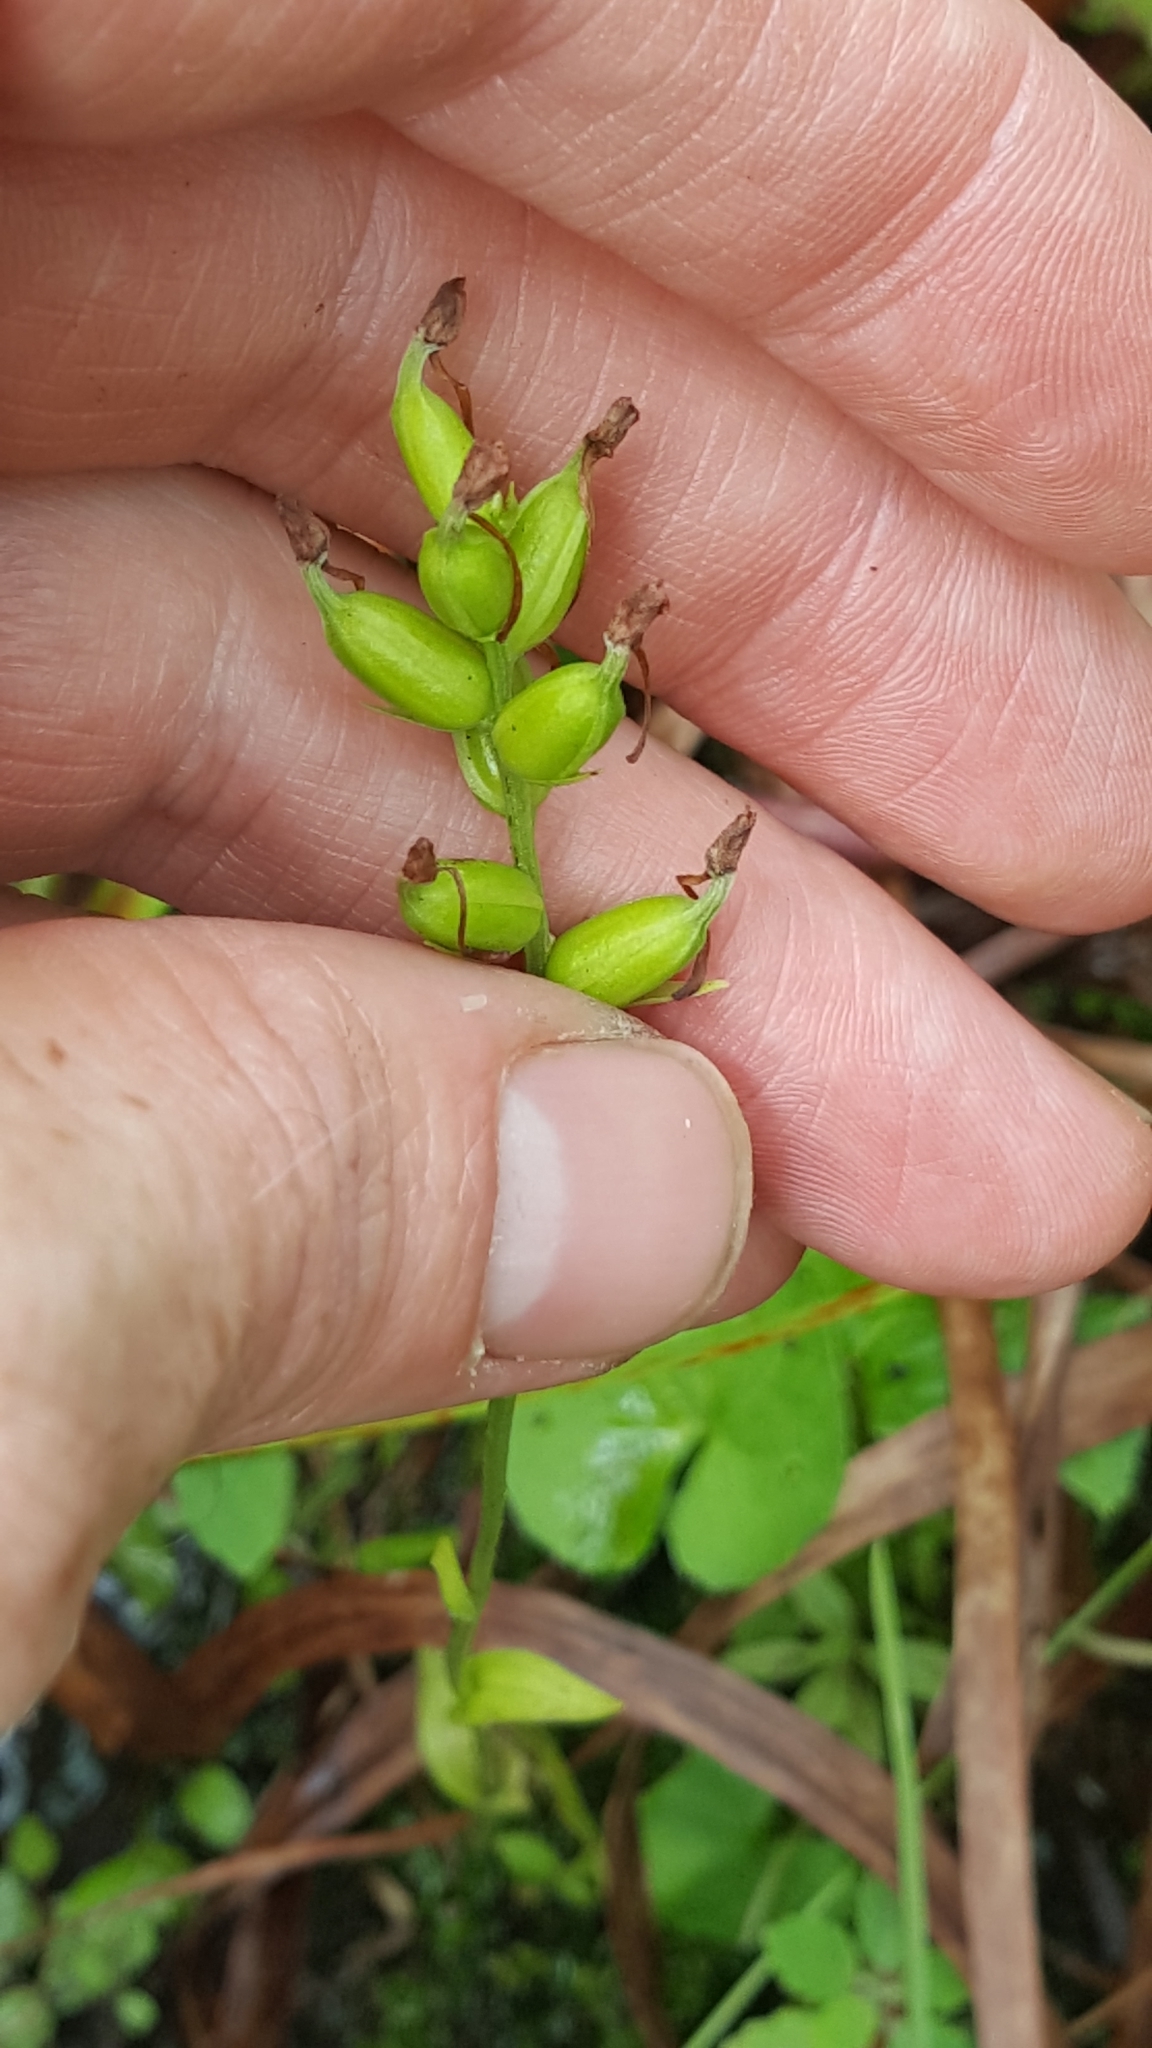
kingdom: Plantae
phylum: Tracheophyta
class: Liliopsida
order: Asparagales
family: Orchidaceae
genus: Platanthera
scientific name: Platanthera clavellata
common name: Club-spur orchid
